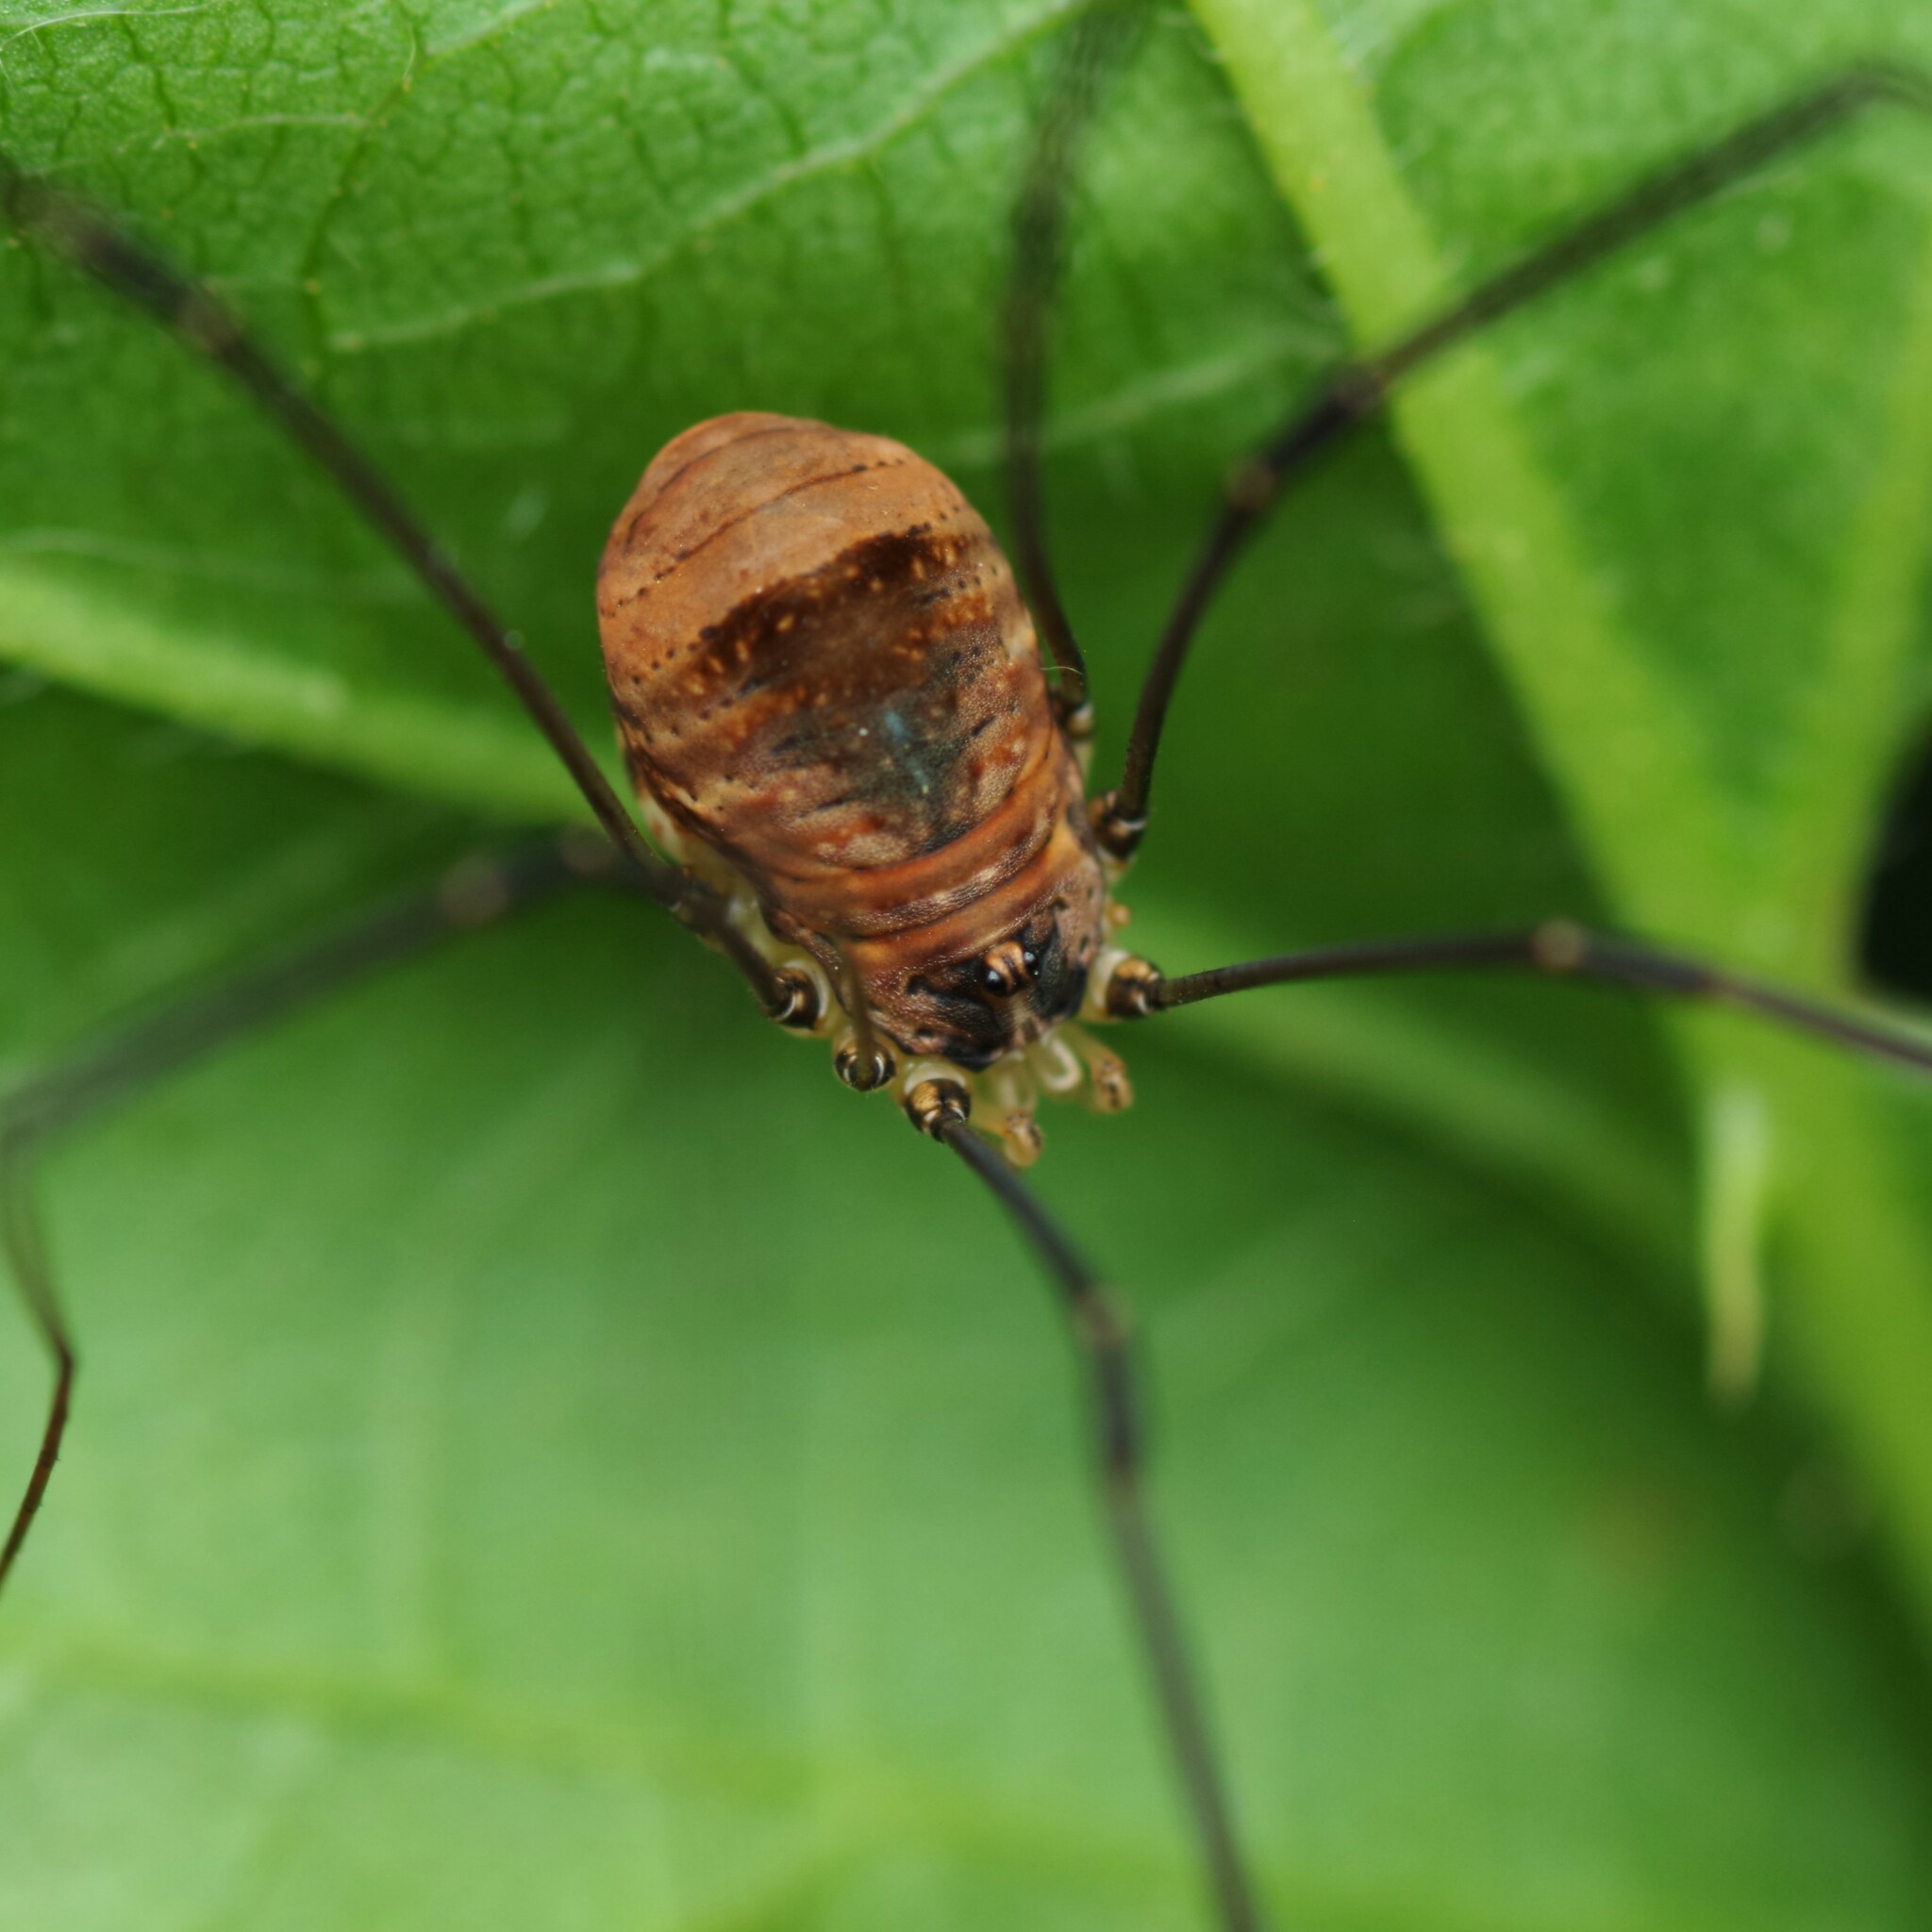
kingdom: Animalia
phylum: Arthropoda
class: Arachnida
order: Opiliones
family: Sclerosomatidae
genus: Leiobunum
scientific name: Leiobunum blackwalli
